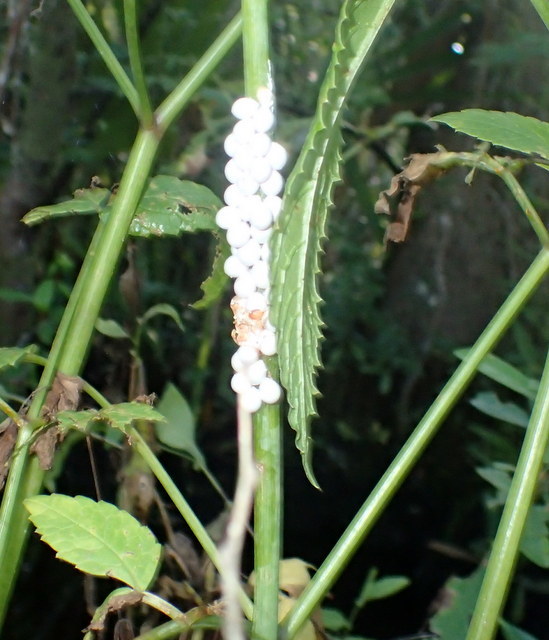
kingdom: Animalia
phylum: Mollusca
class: Gastropoda
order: Architaenioglossa
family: Ampullariidae
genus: Pomacea
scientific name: Pomacea paludosa
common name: Florida applesnail
